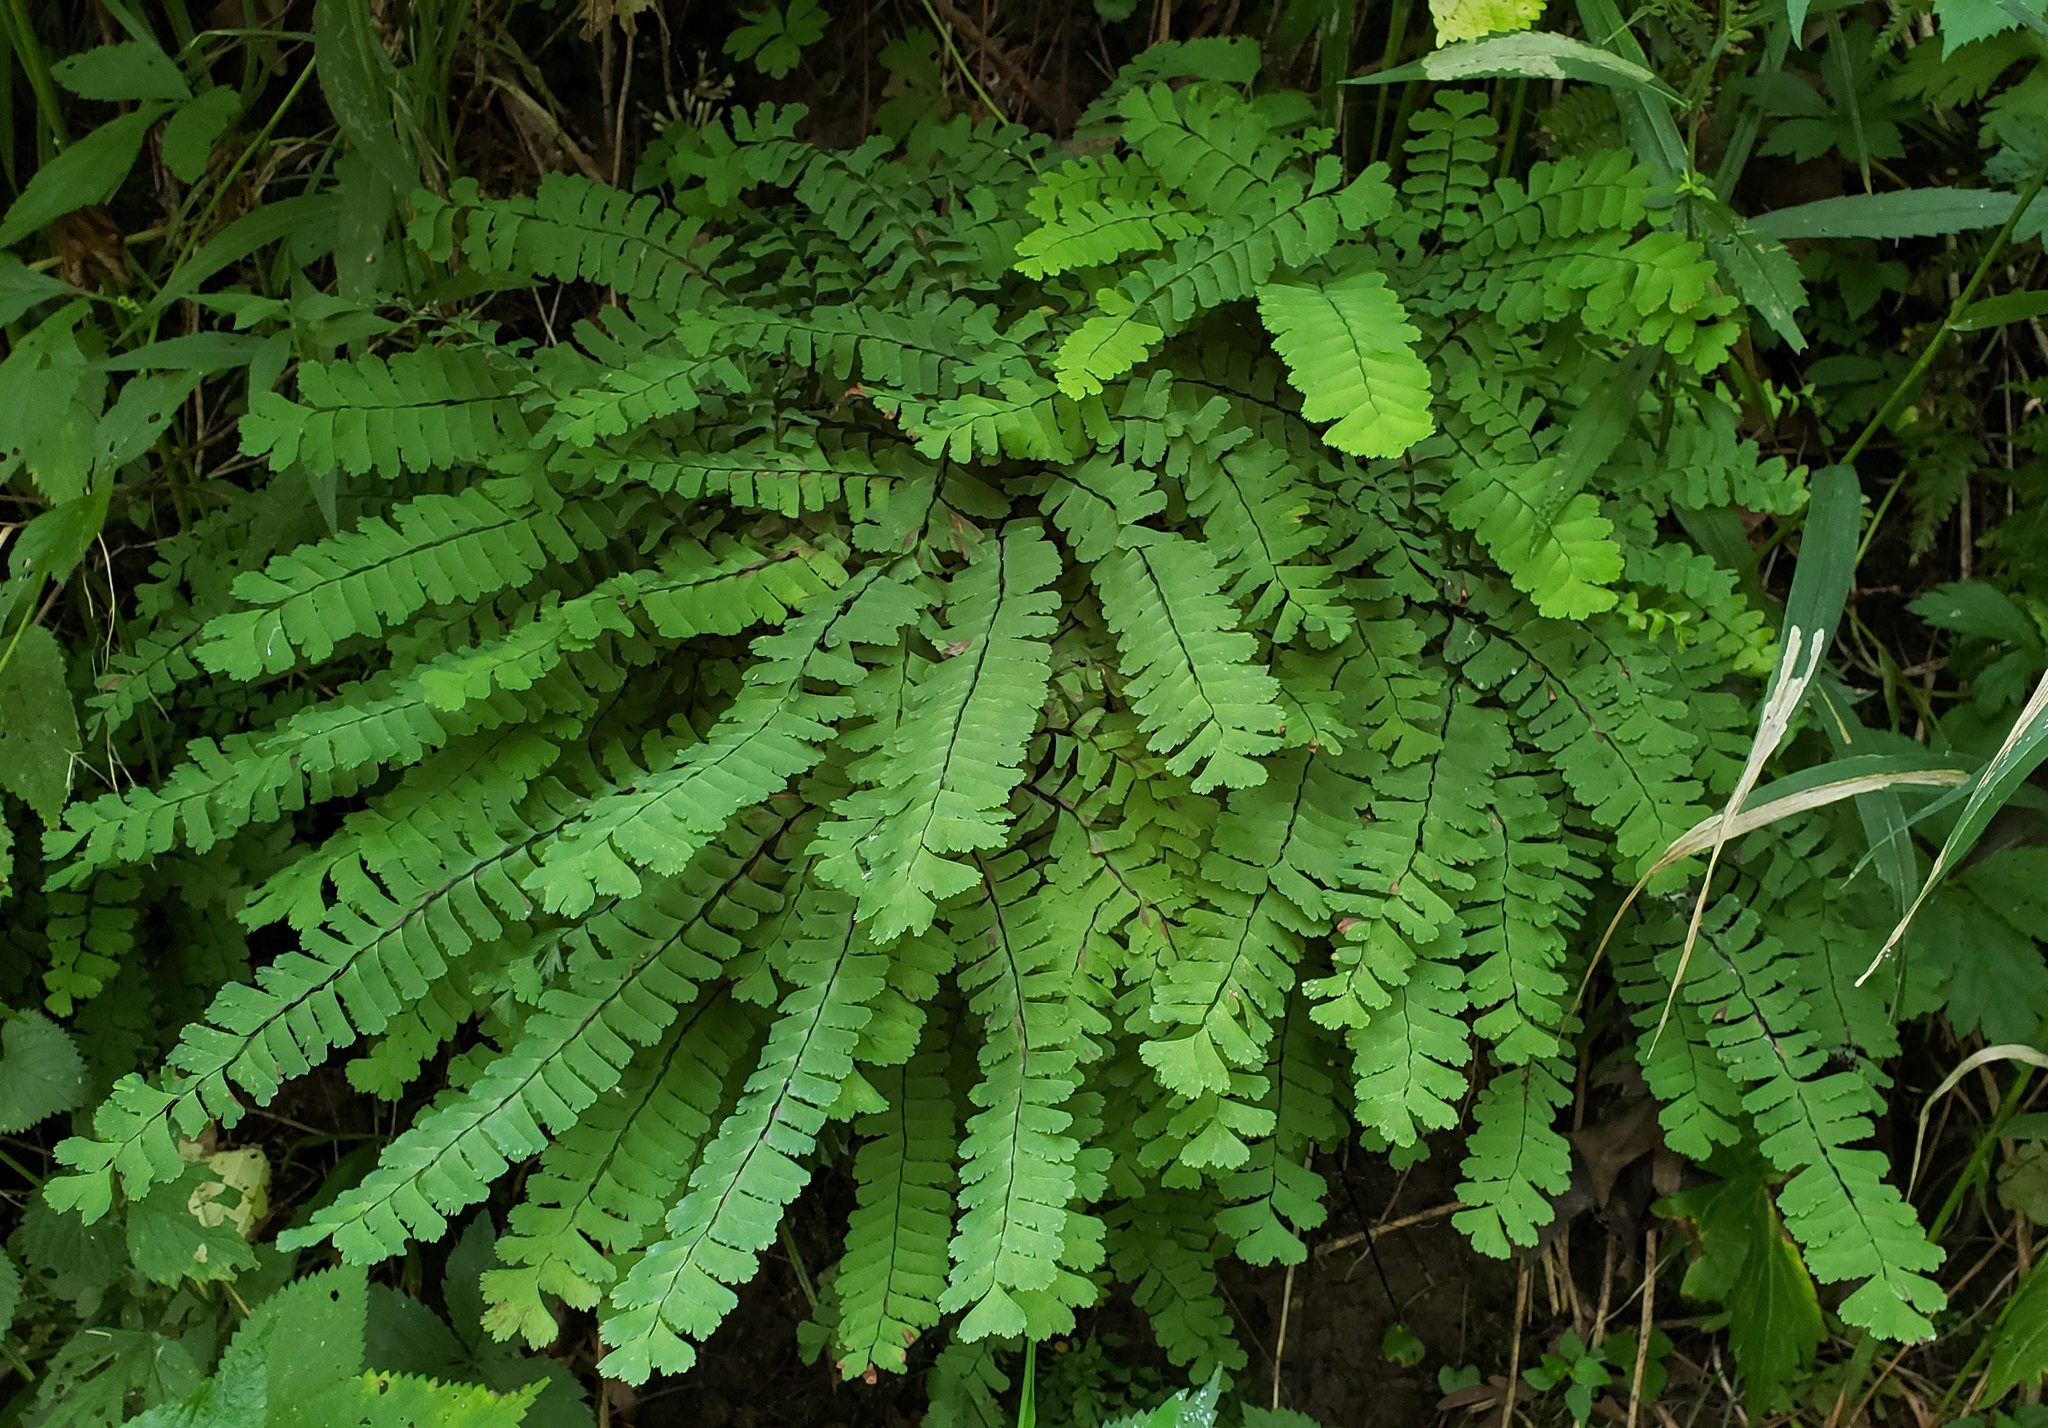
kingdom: Plantae
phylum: Tracheophyta
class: Polypodiopsida
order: Polypodiales
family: Pteridaceae
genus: Adiantum
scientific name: Adiantum pedatum
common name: Five-finger fern
